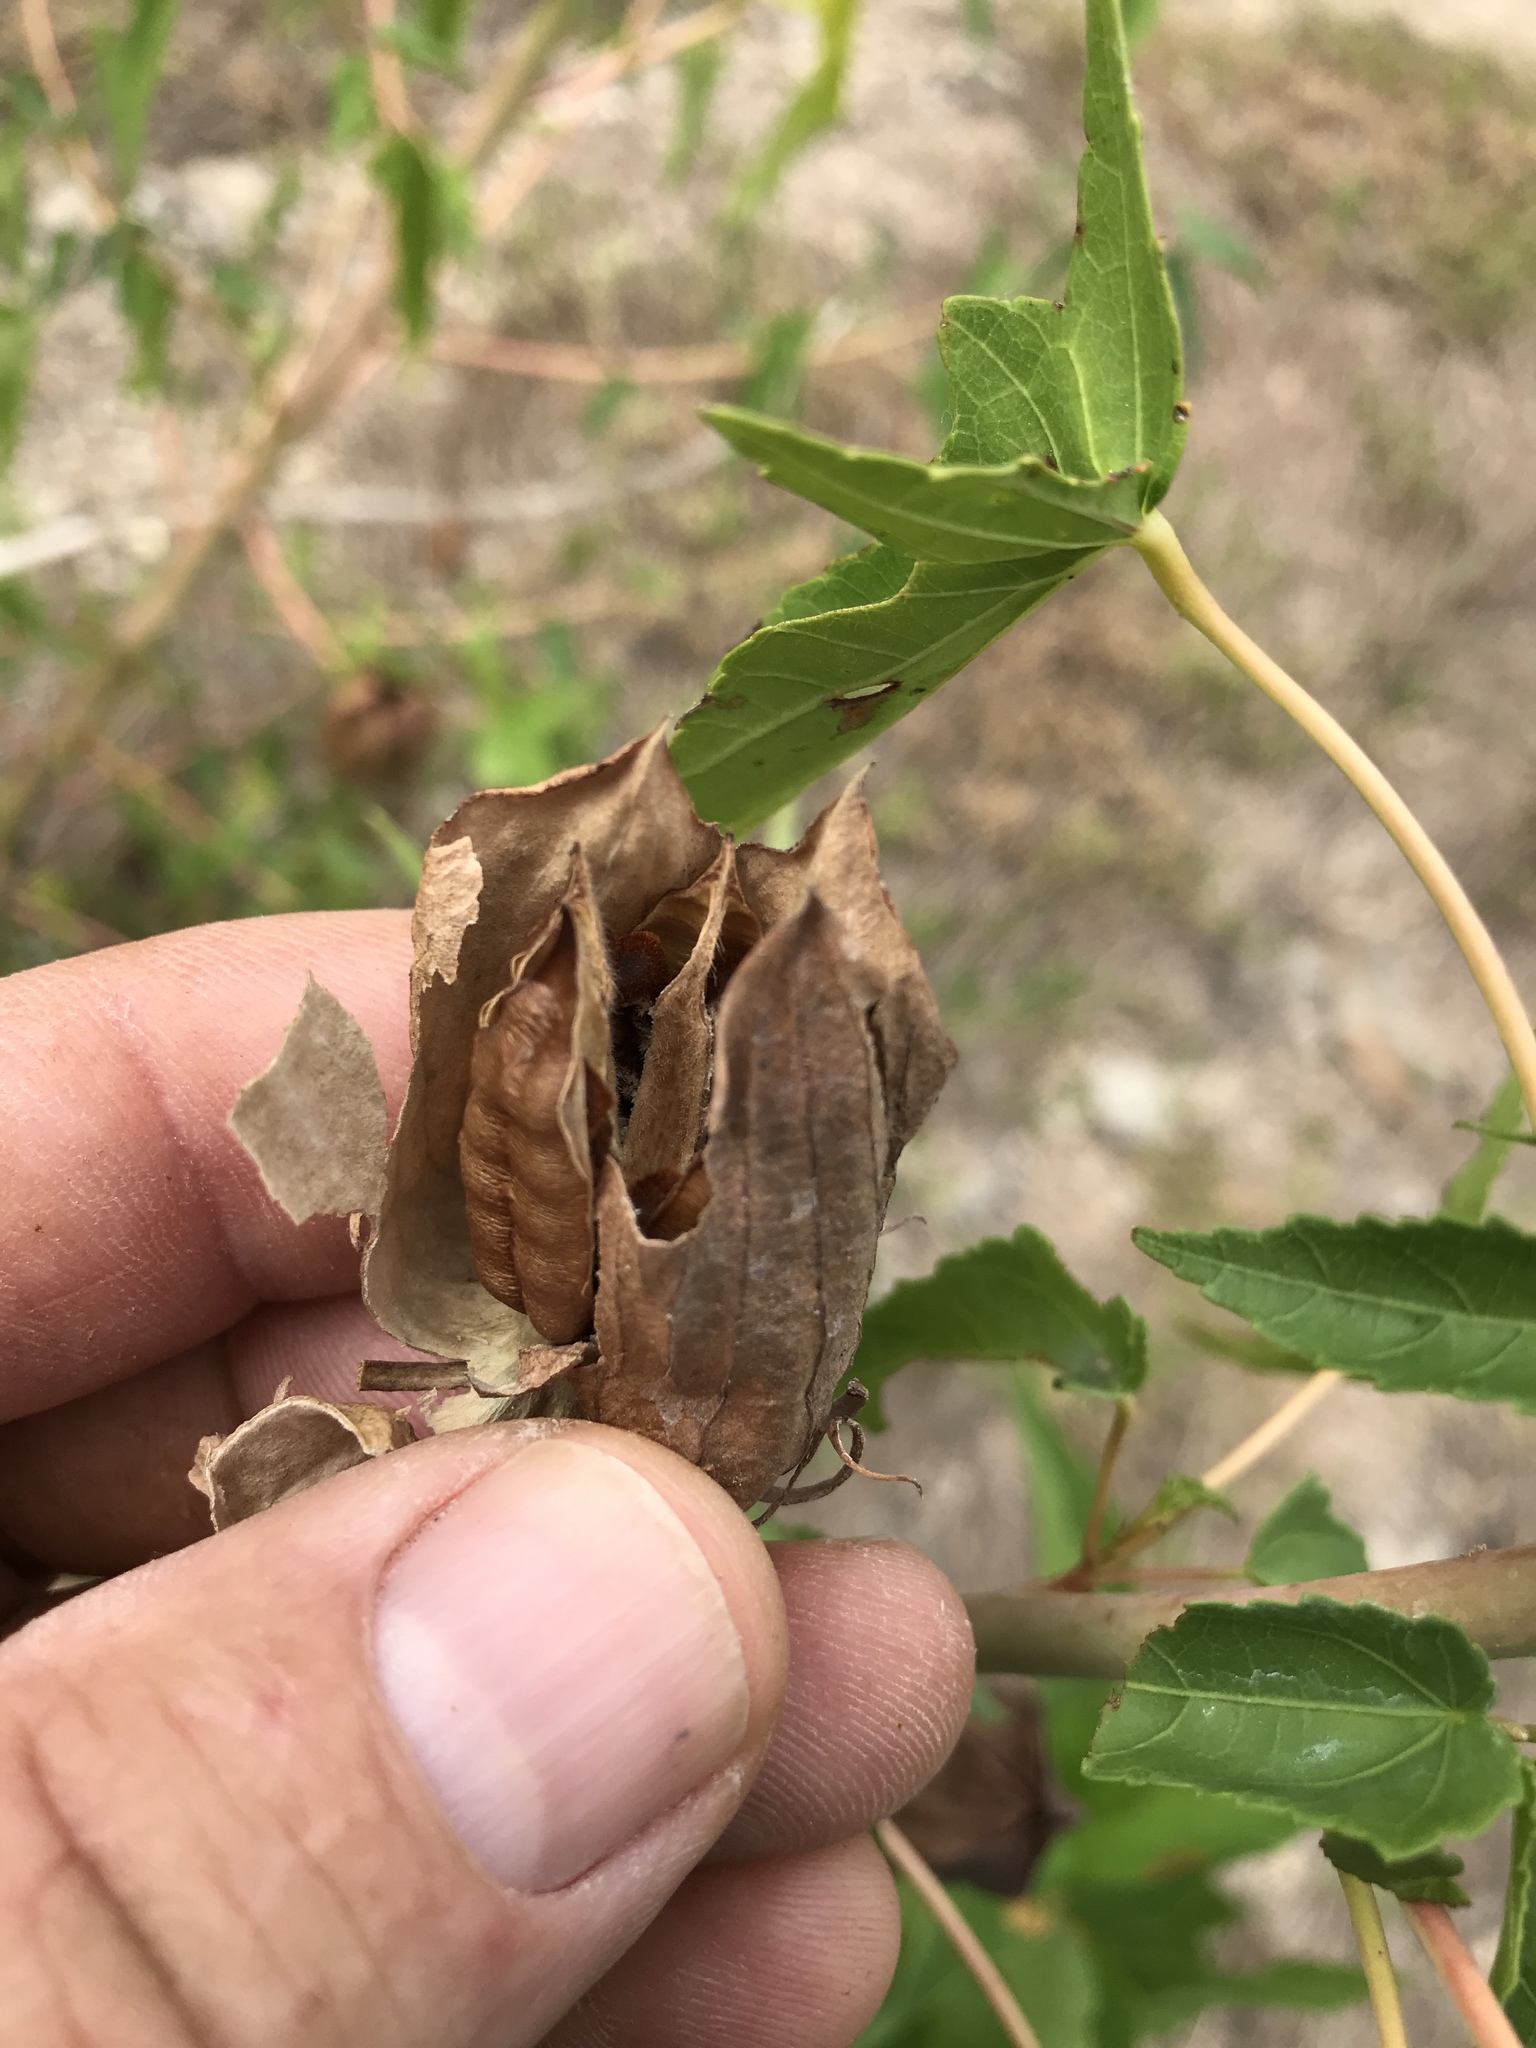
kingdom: Plantae
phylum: Tracheophyta
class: Magnoliopsida
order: Malvales
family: Malvaceae
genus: Hibiscus
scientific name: Hibiscus laevis
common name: Scarlet rose-mallow
